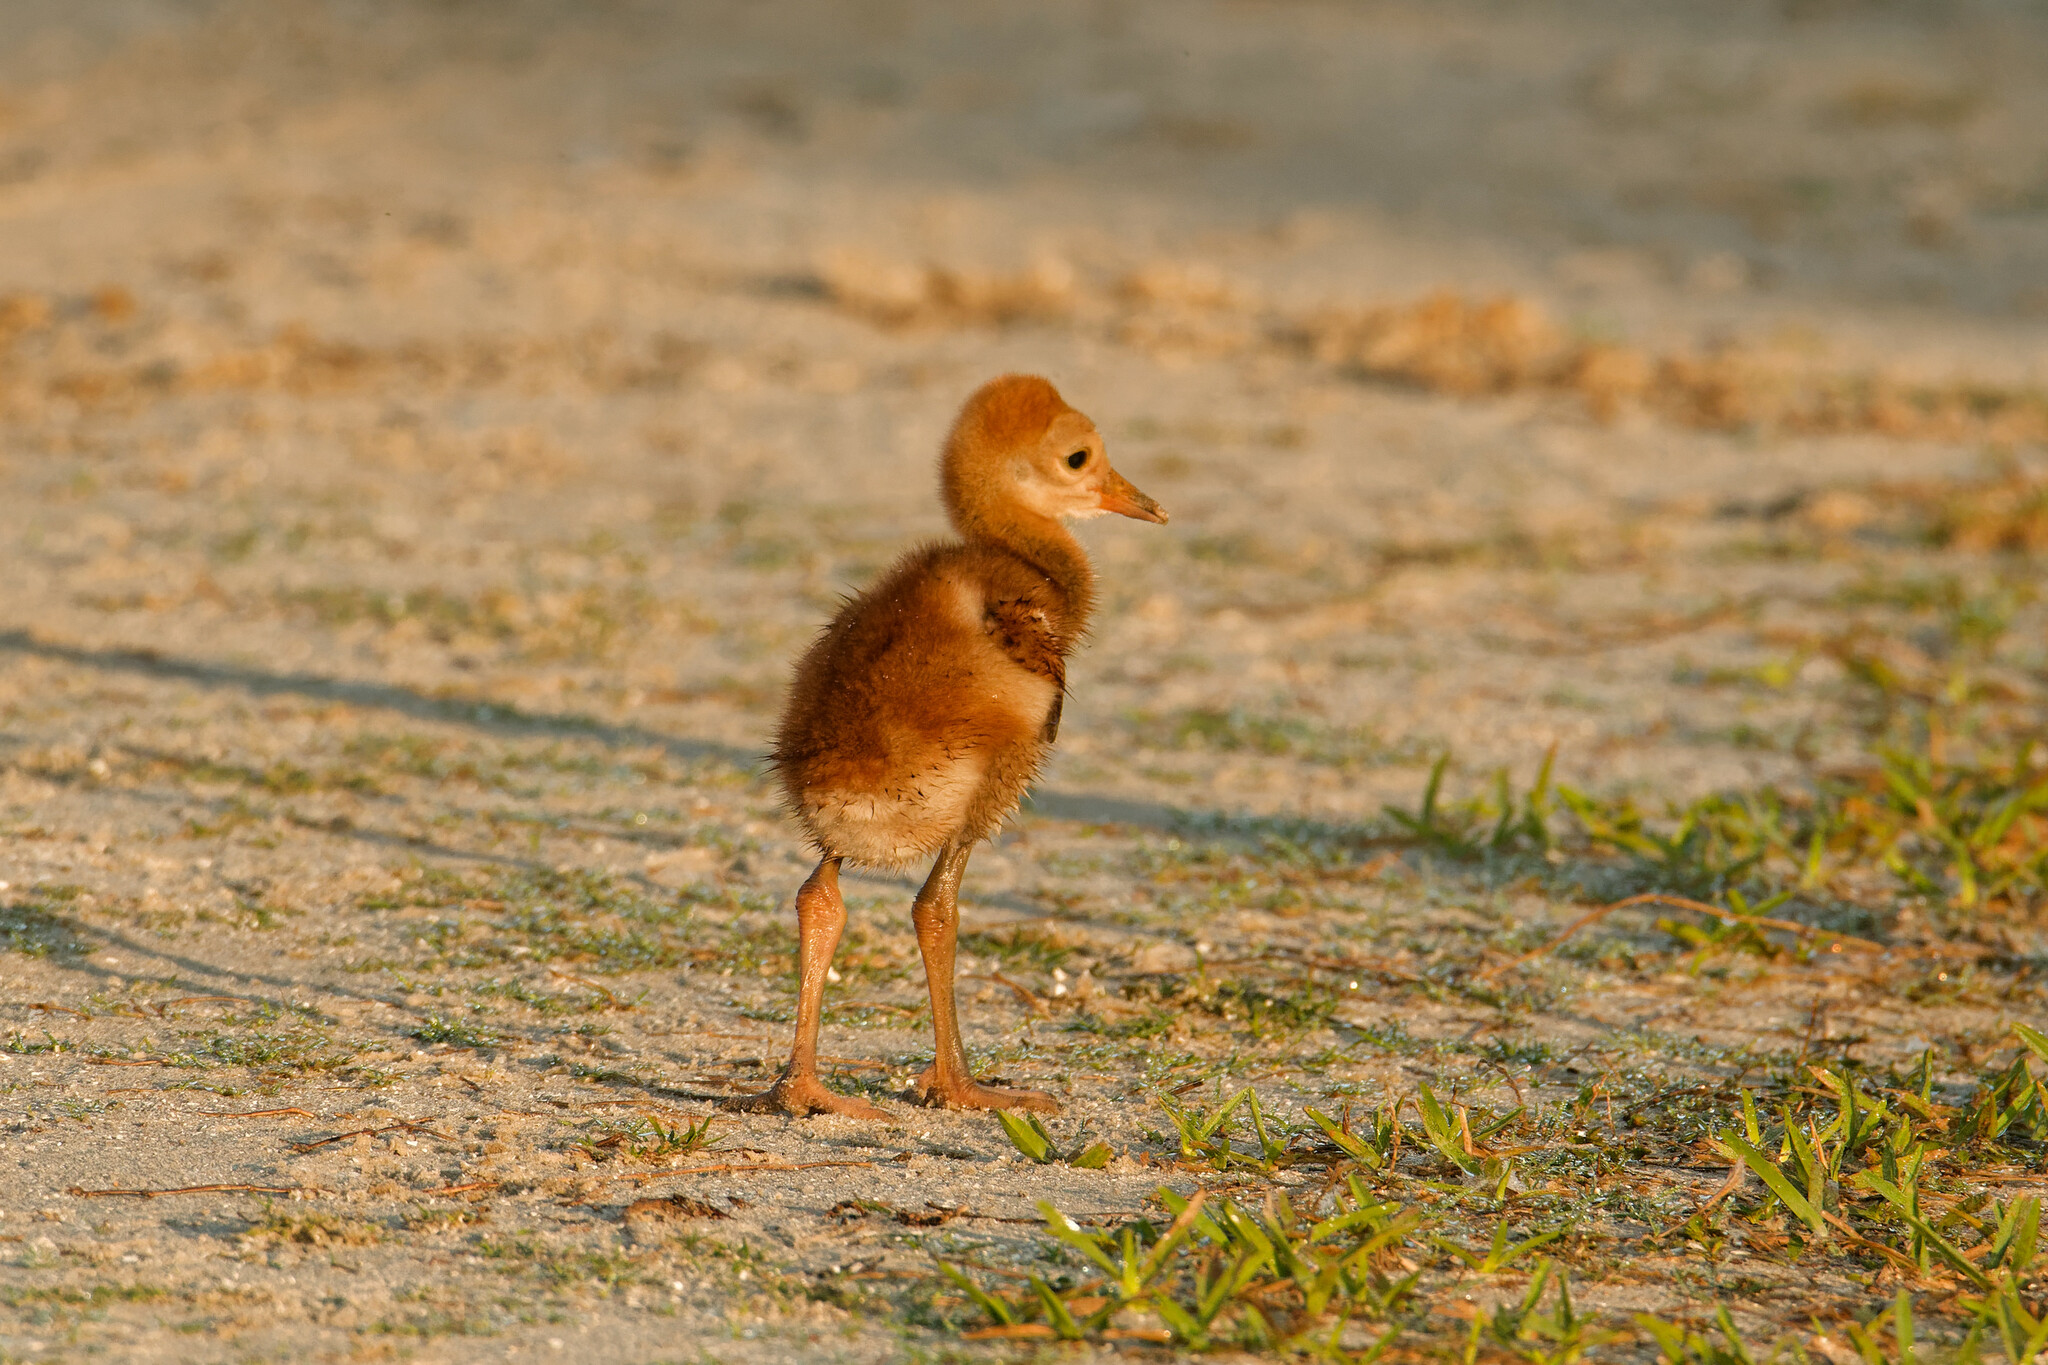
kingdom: Animalia
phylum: Chordata
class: Aves
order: Gruiformes
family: Gruidae
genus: Grus
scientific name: Grus canadensis
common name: Sandhill crane
